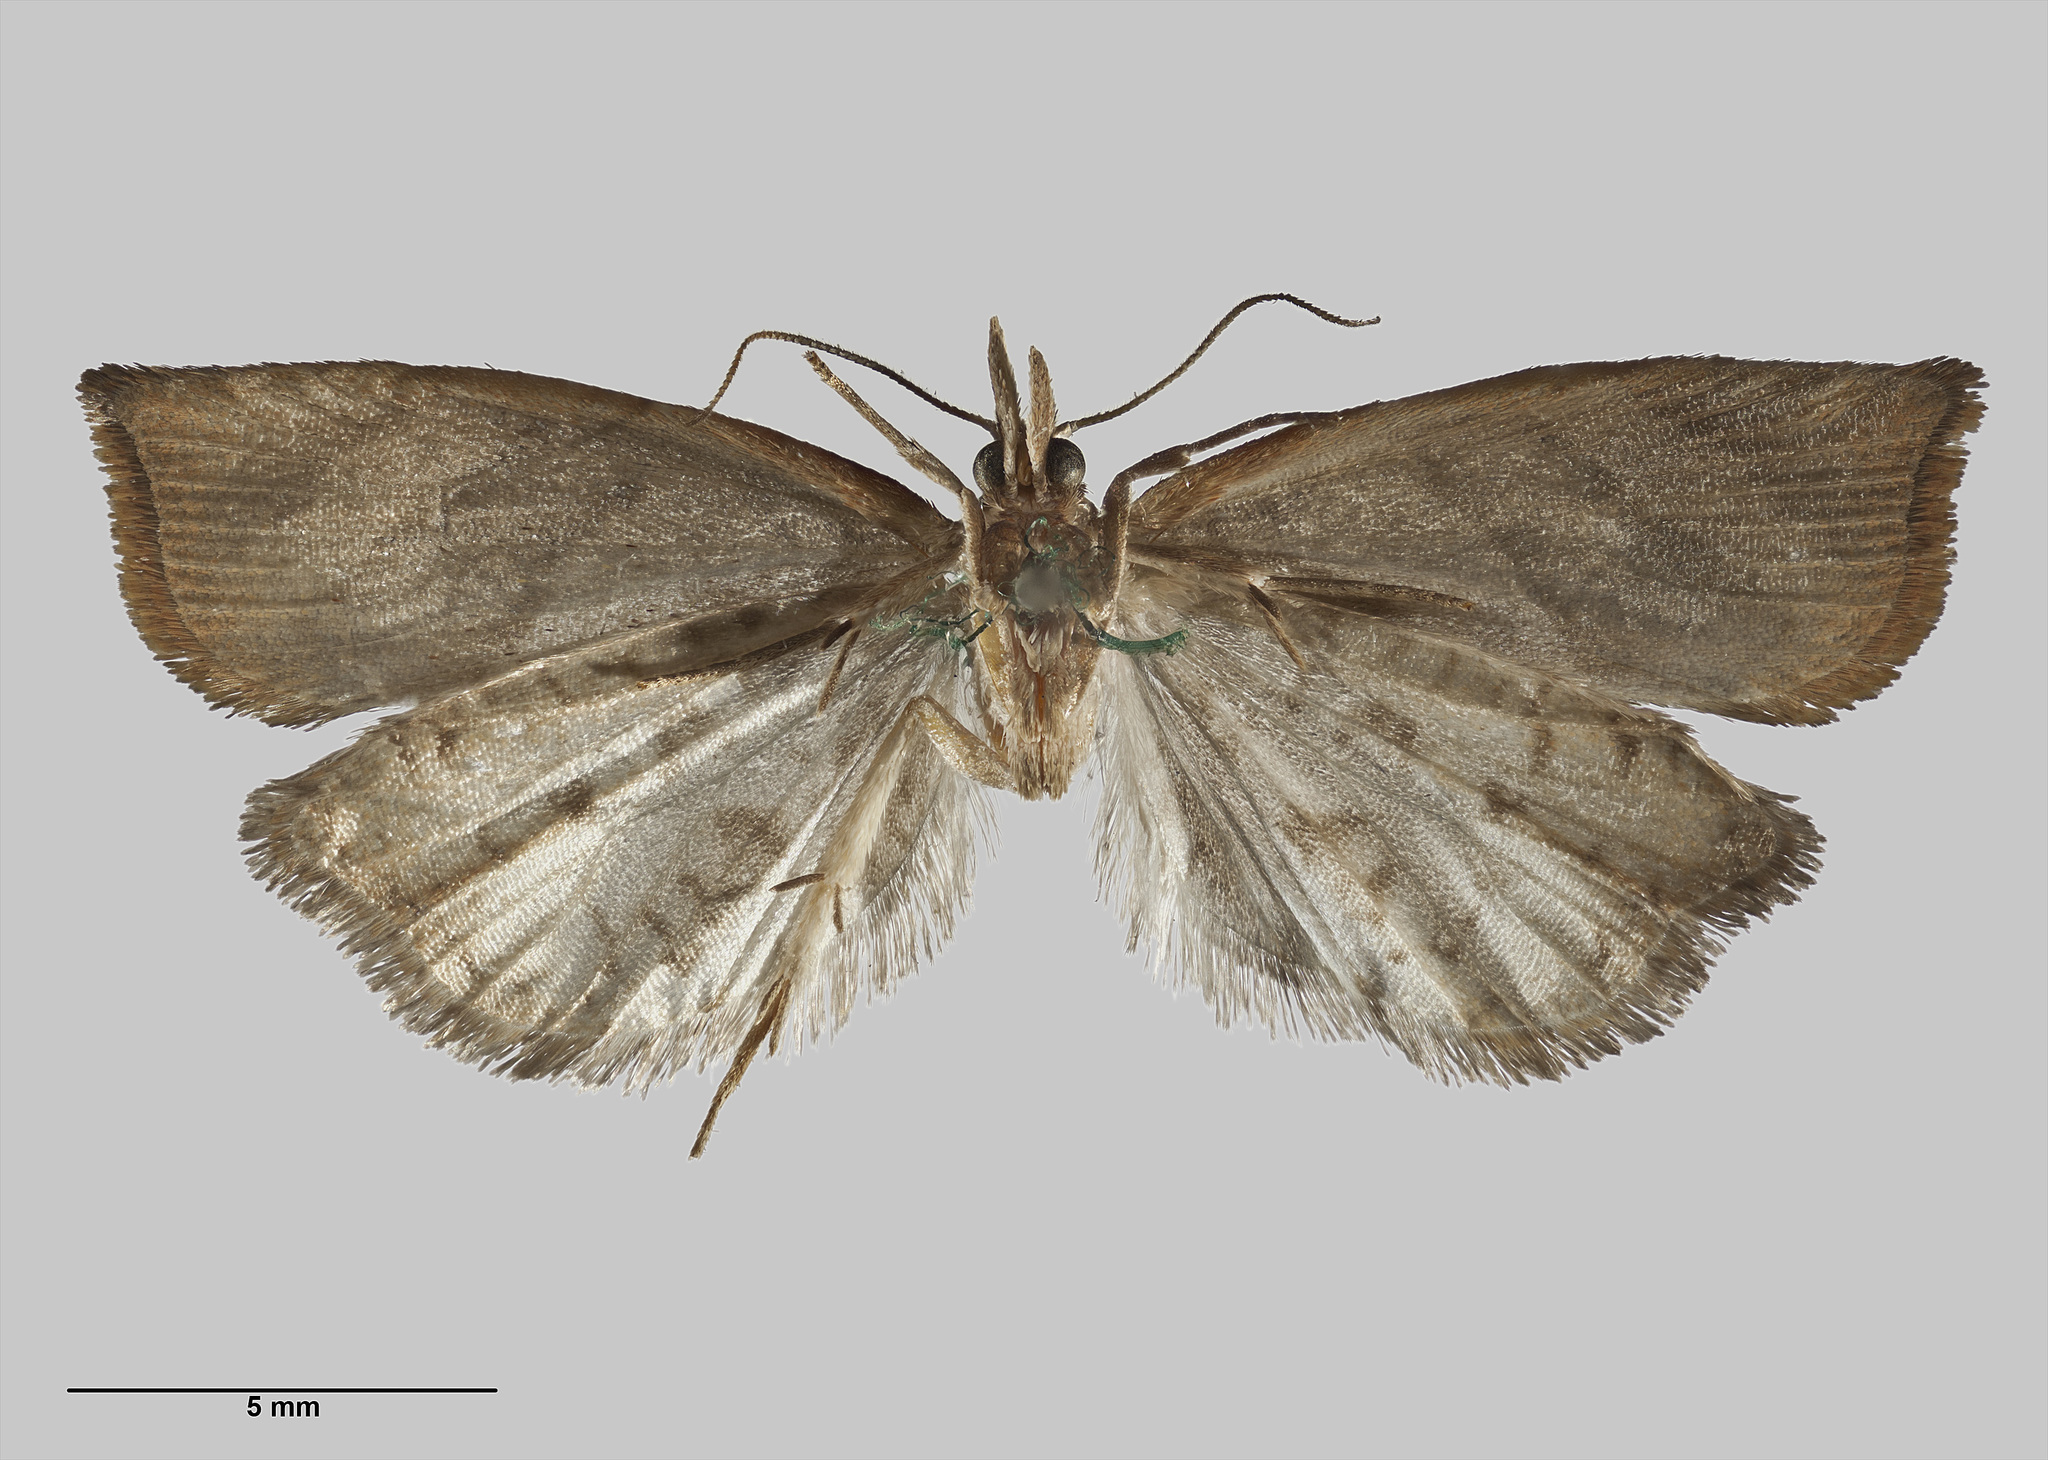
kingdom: Animalia
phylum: Arthropoda
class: Insecta
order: Lepidoptera
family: Tortricidae
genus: Apoctena
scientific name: Apoctena clarkei
